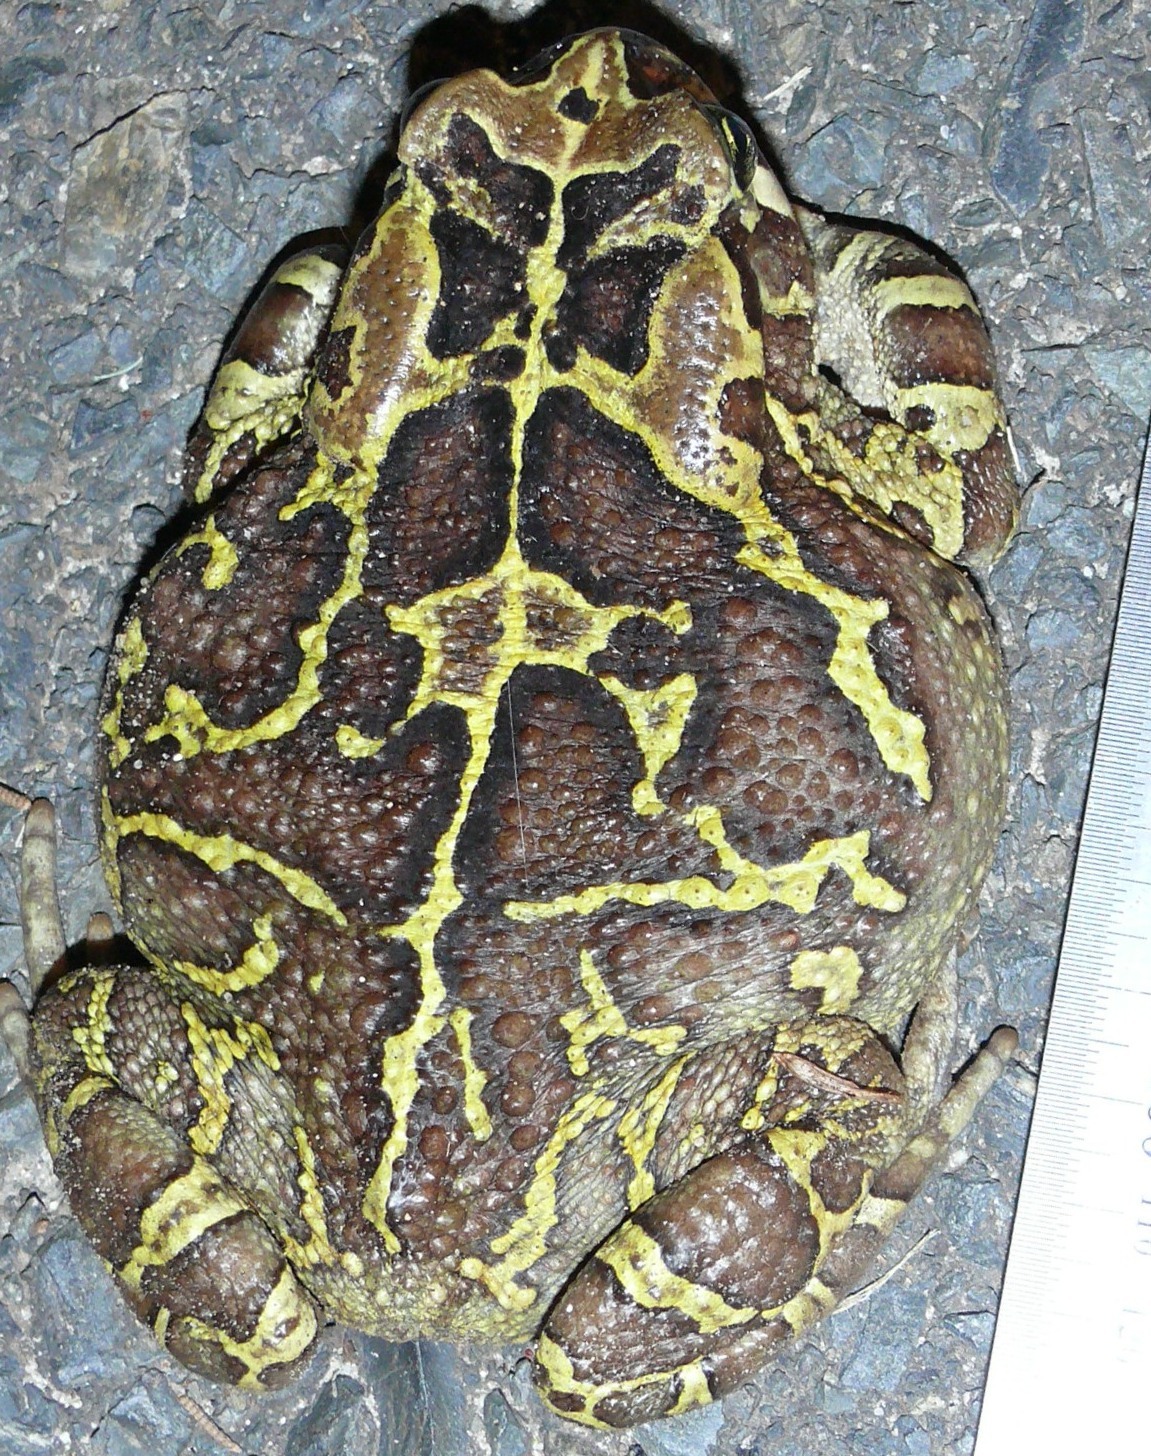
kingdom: Animalia
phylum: Chordata
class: Amphibia
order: Anura
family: Bufonidae
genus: Sclerophrys
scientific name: Sclerophrys pantherina
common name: Panther toad
